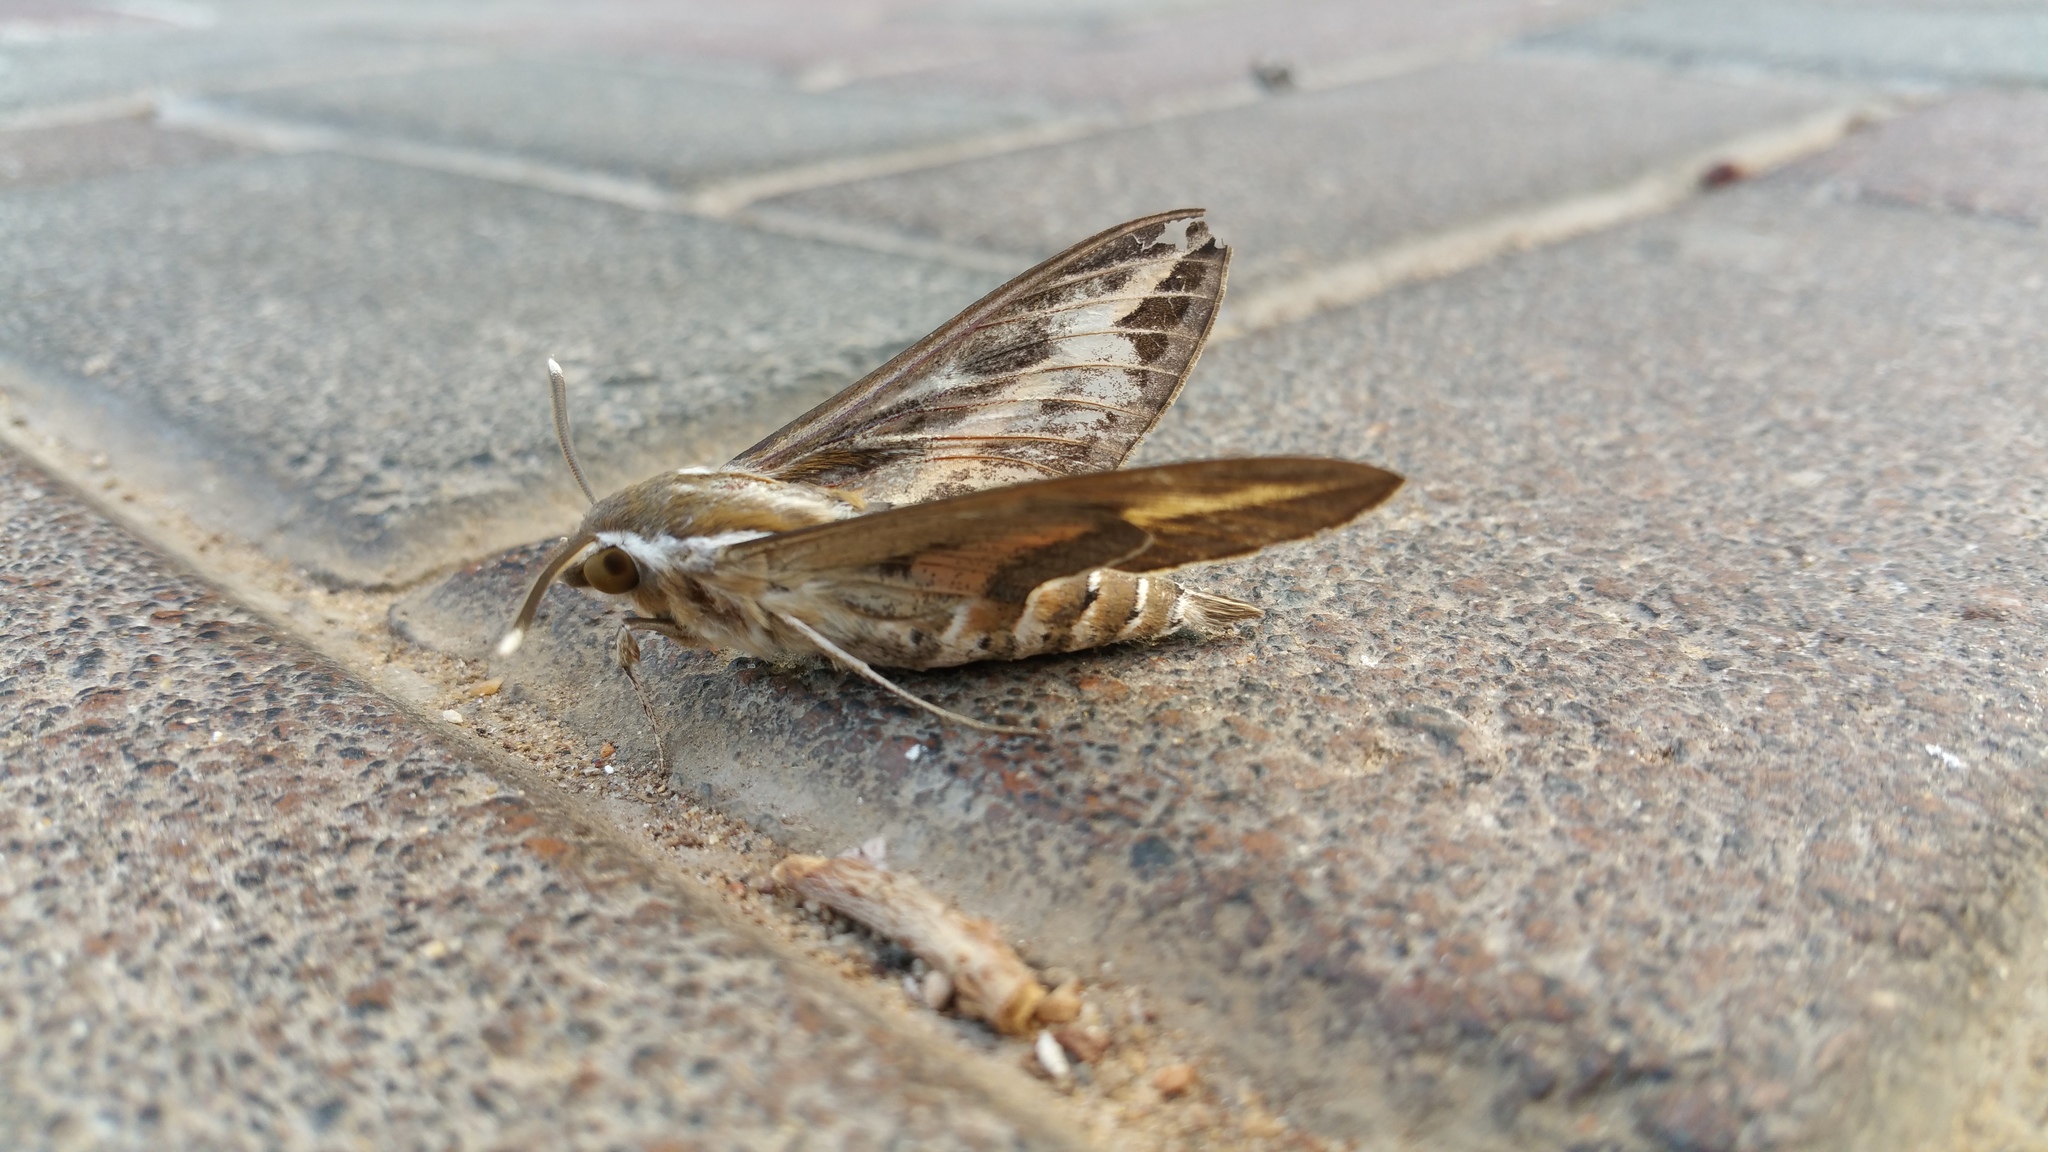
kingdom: Animalia
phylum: Arthropoda
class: Insecta
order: Lepidoptera
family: Sphingidae
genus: Hyles
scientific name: Hyles livornica
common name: Striped hawk-moth
